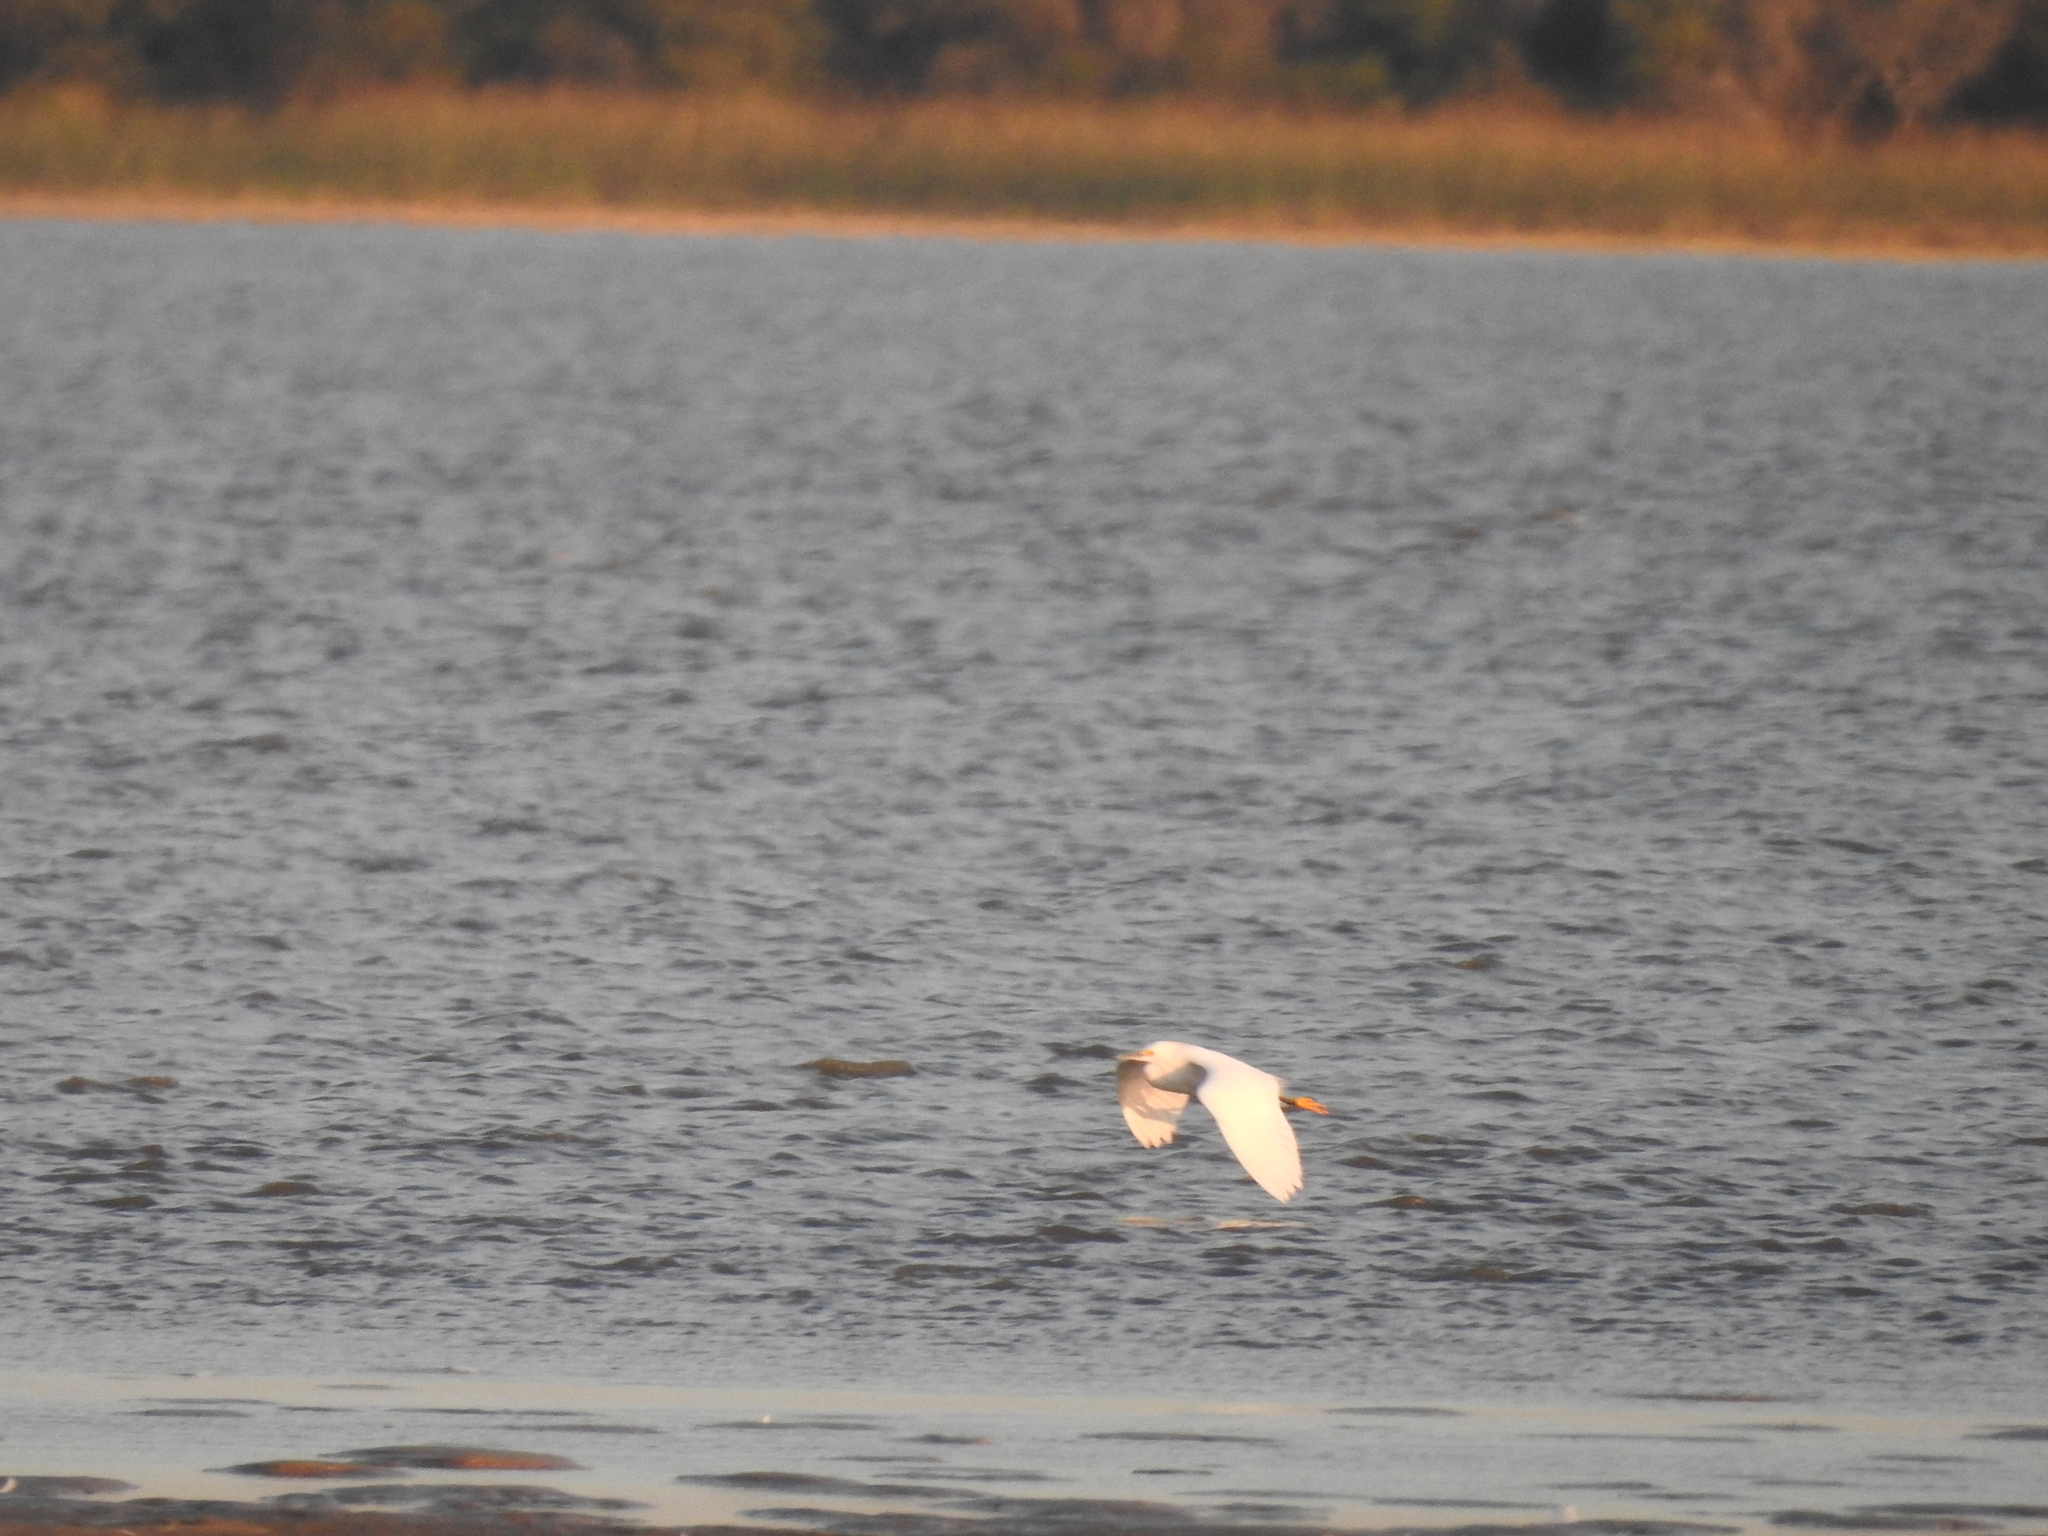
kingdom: Animalia
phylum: Chordata
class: Aves
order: Pelecaniformes
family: Ardeidae
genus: Egretta
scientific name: Egretta thula
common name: Snowy egret
